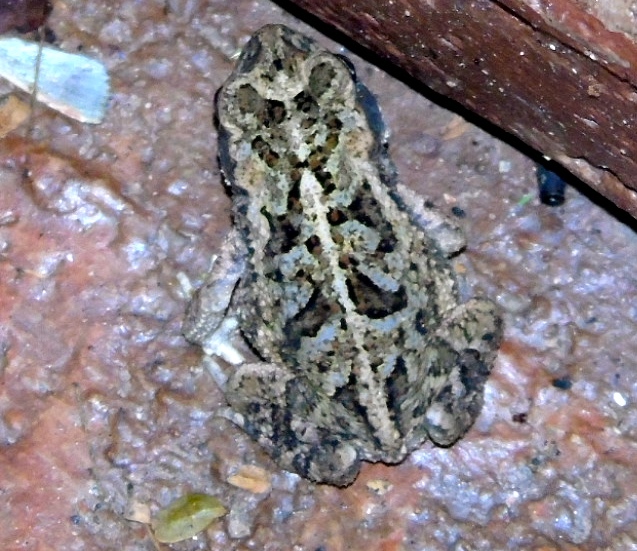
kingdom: Animalia
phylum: Chordata
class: Amphibia
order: Anura
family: Bufonidae
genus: Incilius
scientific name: Incilius mazatlanensis
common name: Sinaloa toad
